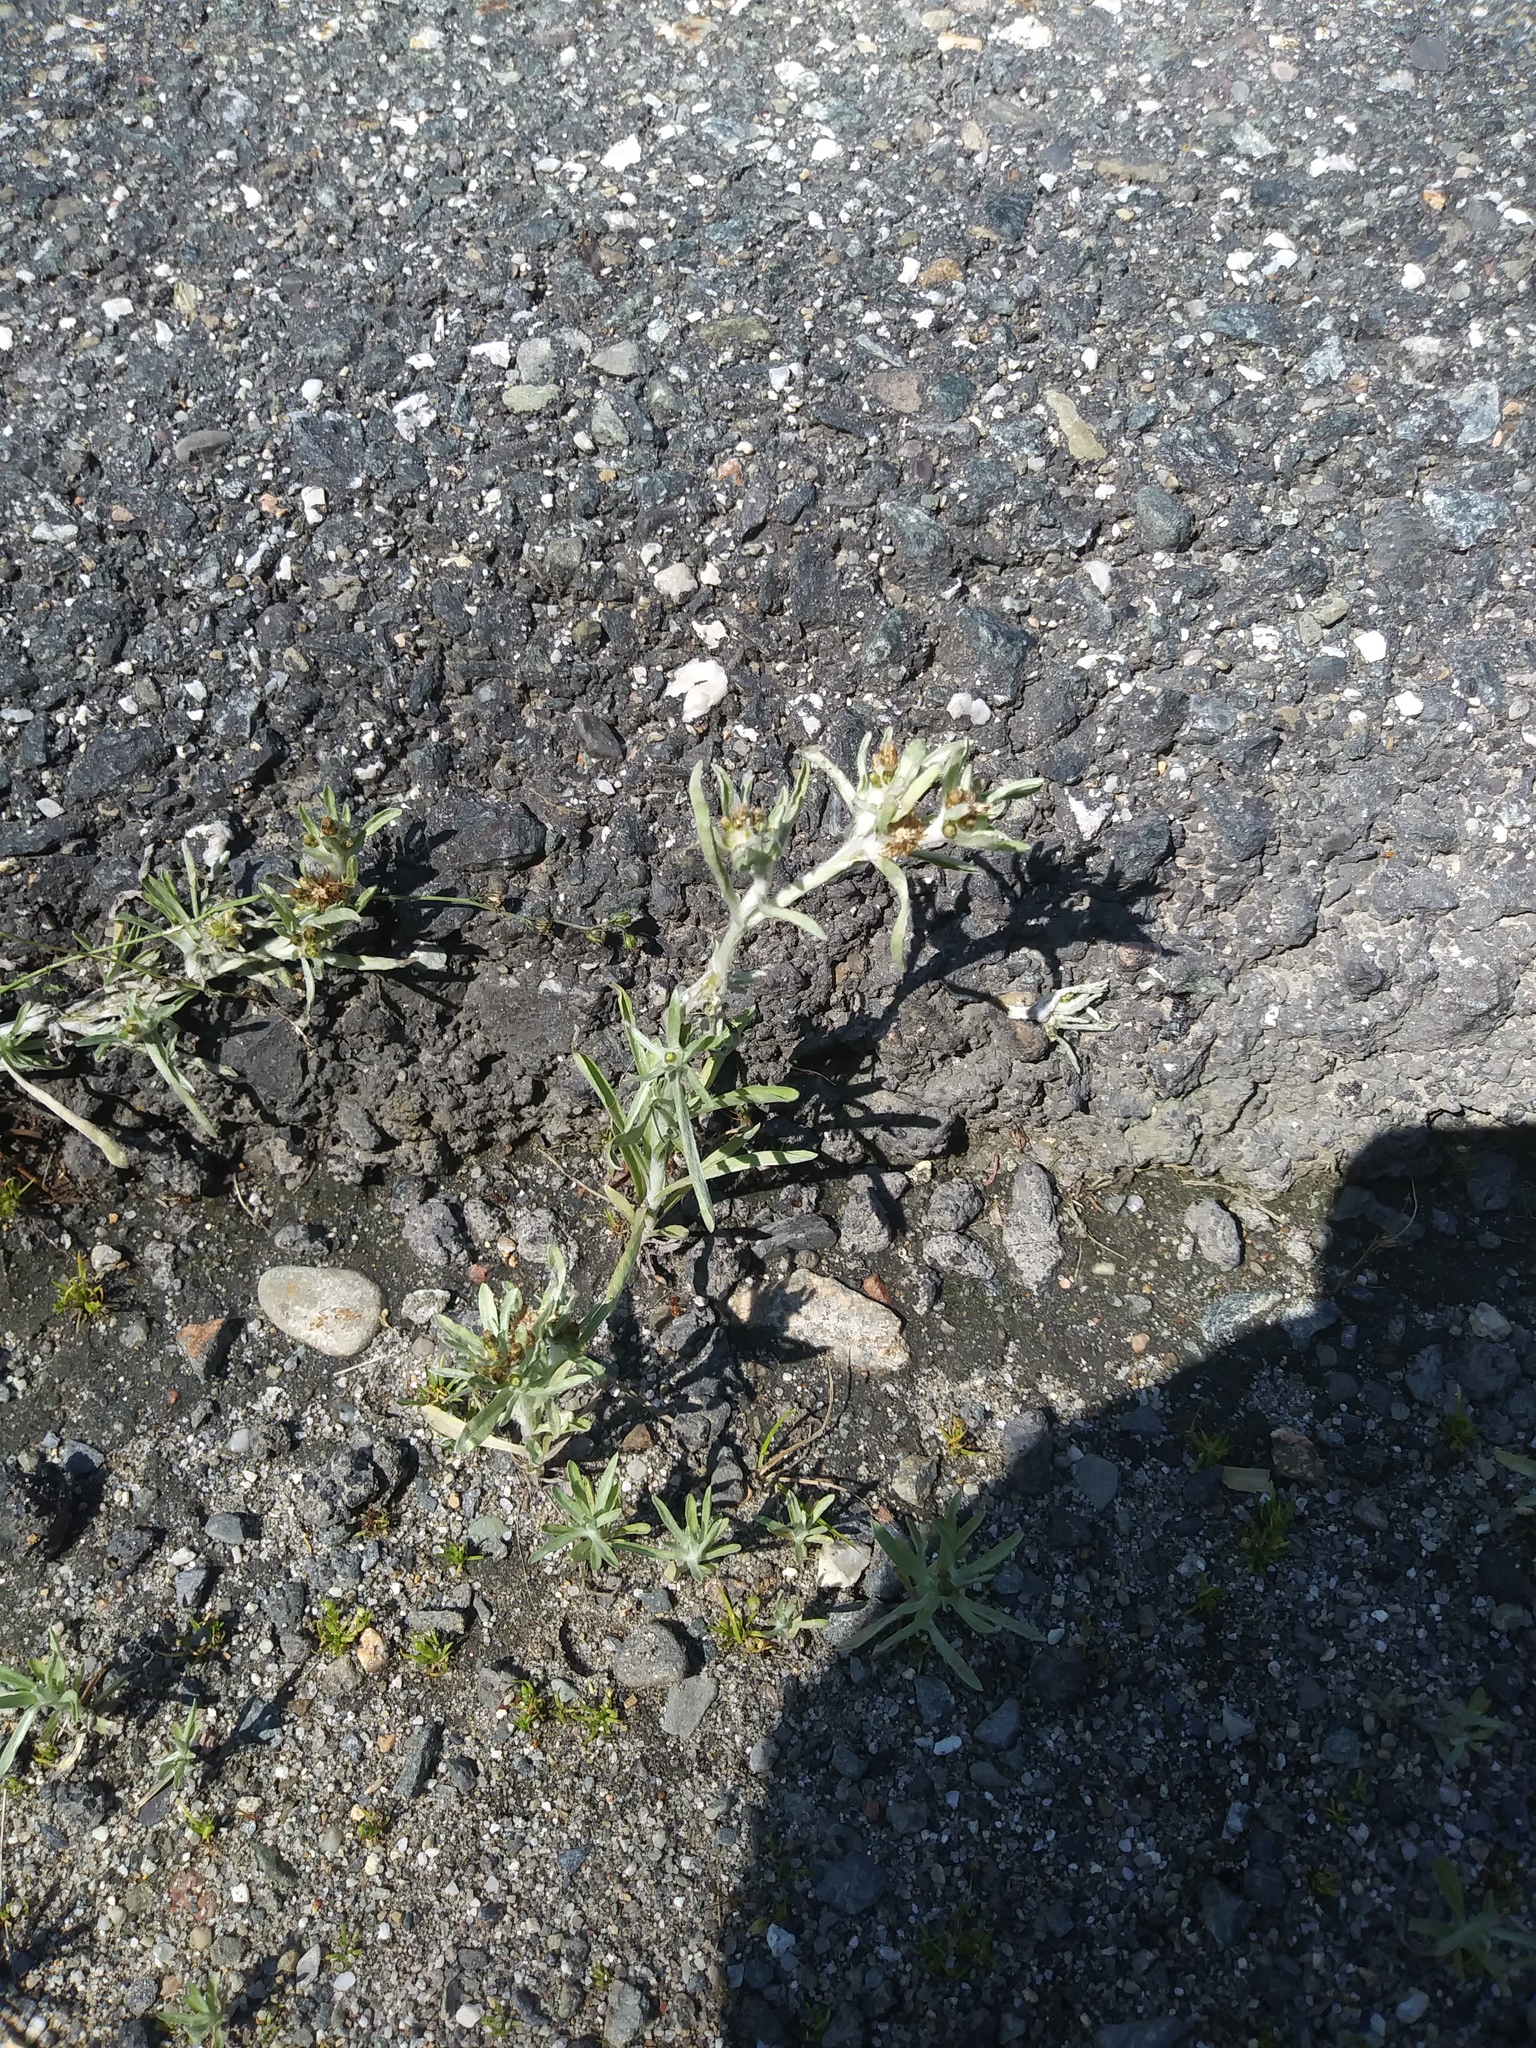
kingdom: Plantae
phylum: Tracheophyta
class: Magnoliopsida
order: Asterales
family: Asteraceae
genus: Gnaphalium
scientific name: Gnaphalium uliginosum
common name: Marsh cudweed
